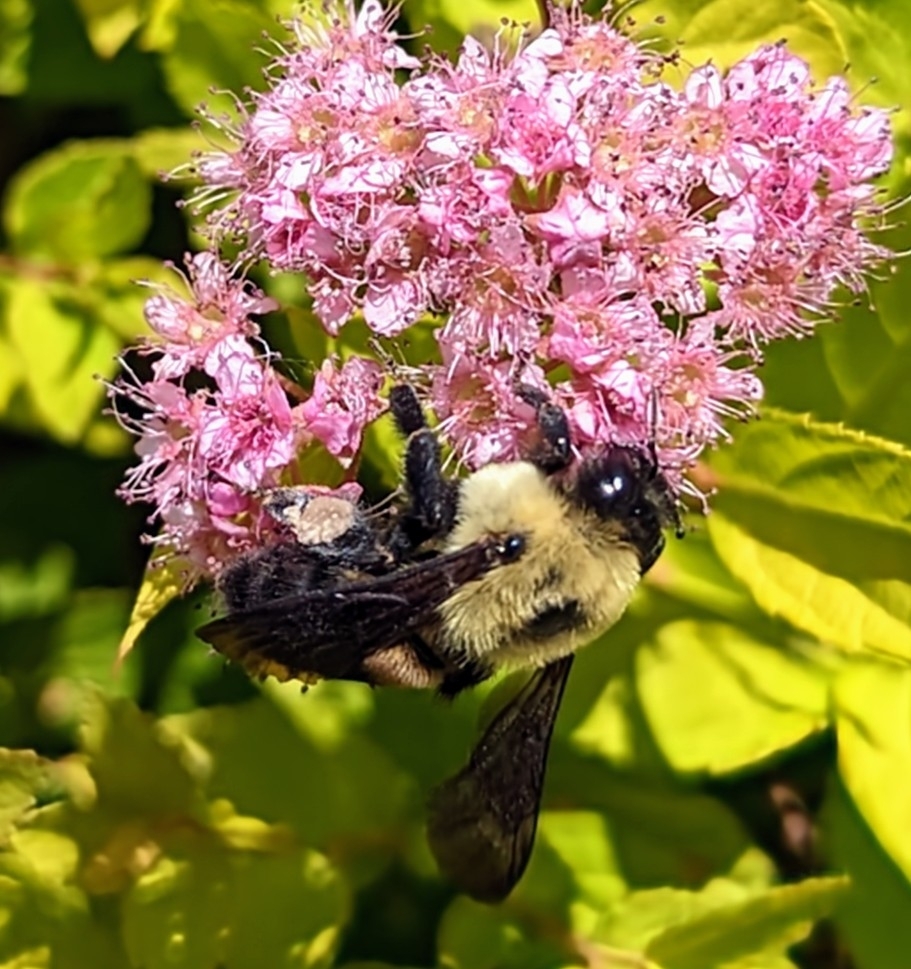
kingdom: Animalia
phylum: Arthropoda
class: Insecta
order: Hymenoptera
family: Apidae
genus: Bombus
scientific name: Bombus griseocollis
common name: Brown-belted bumble bee
